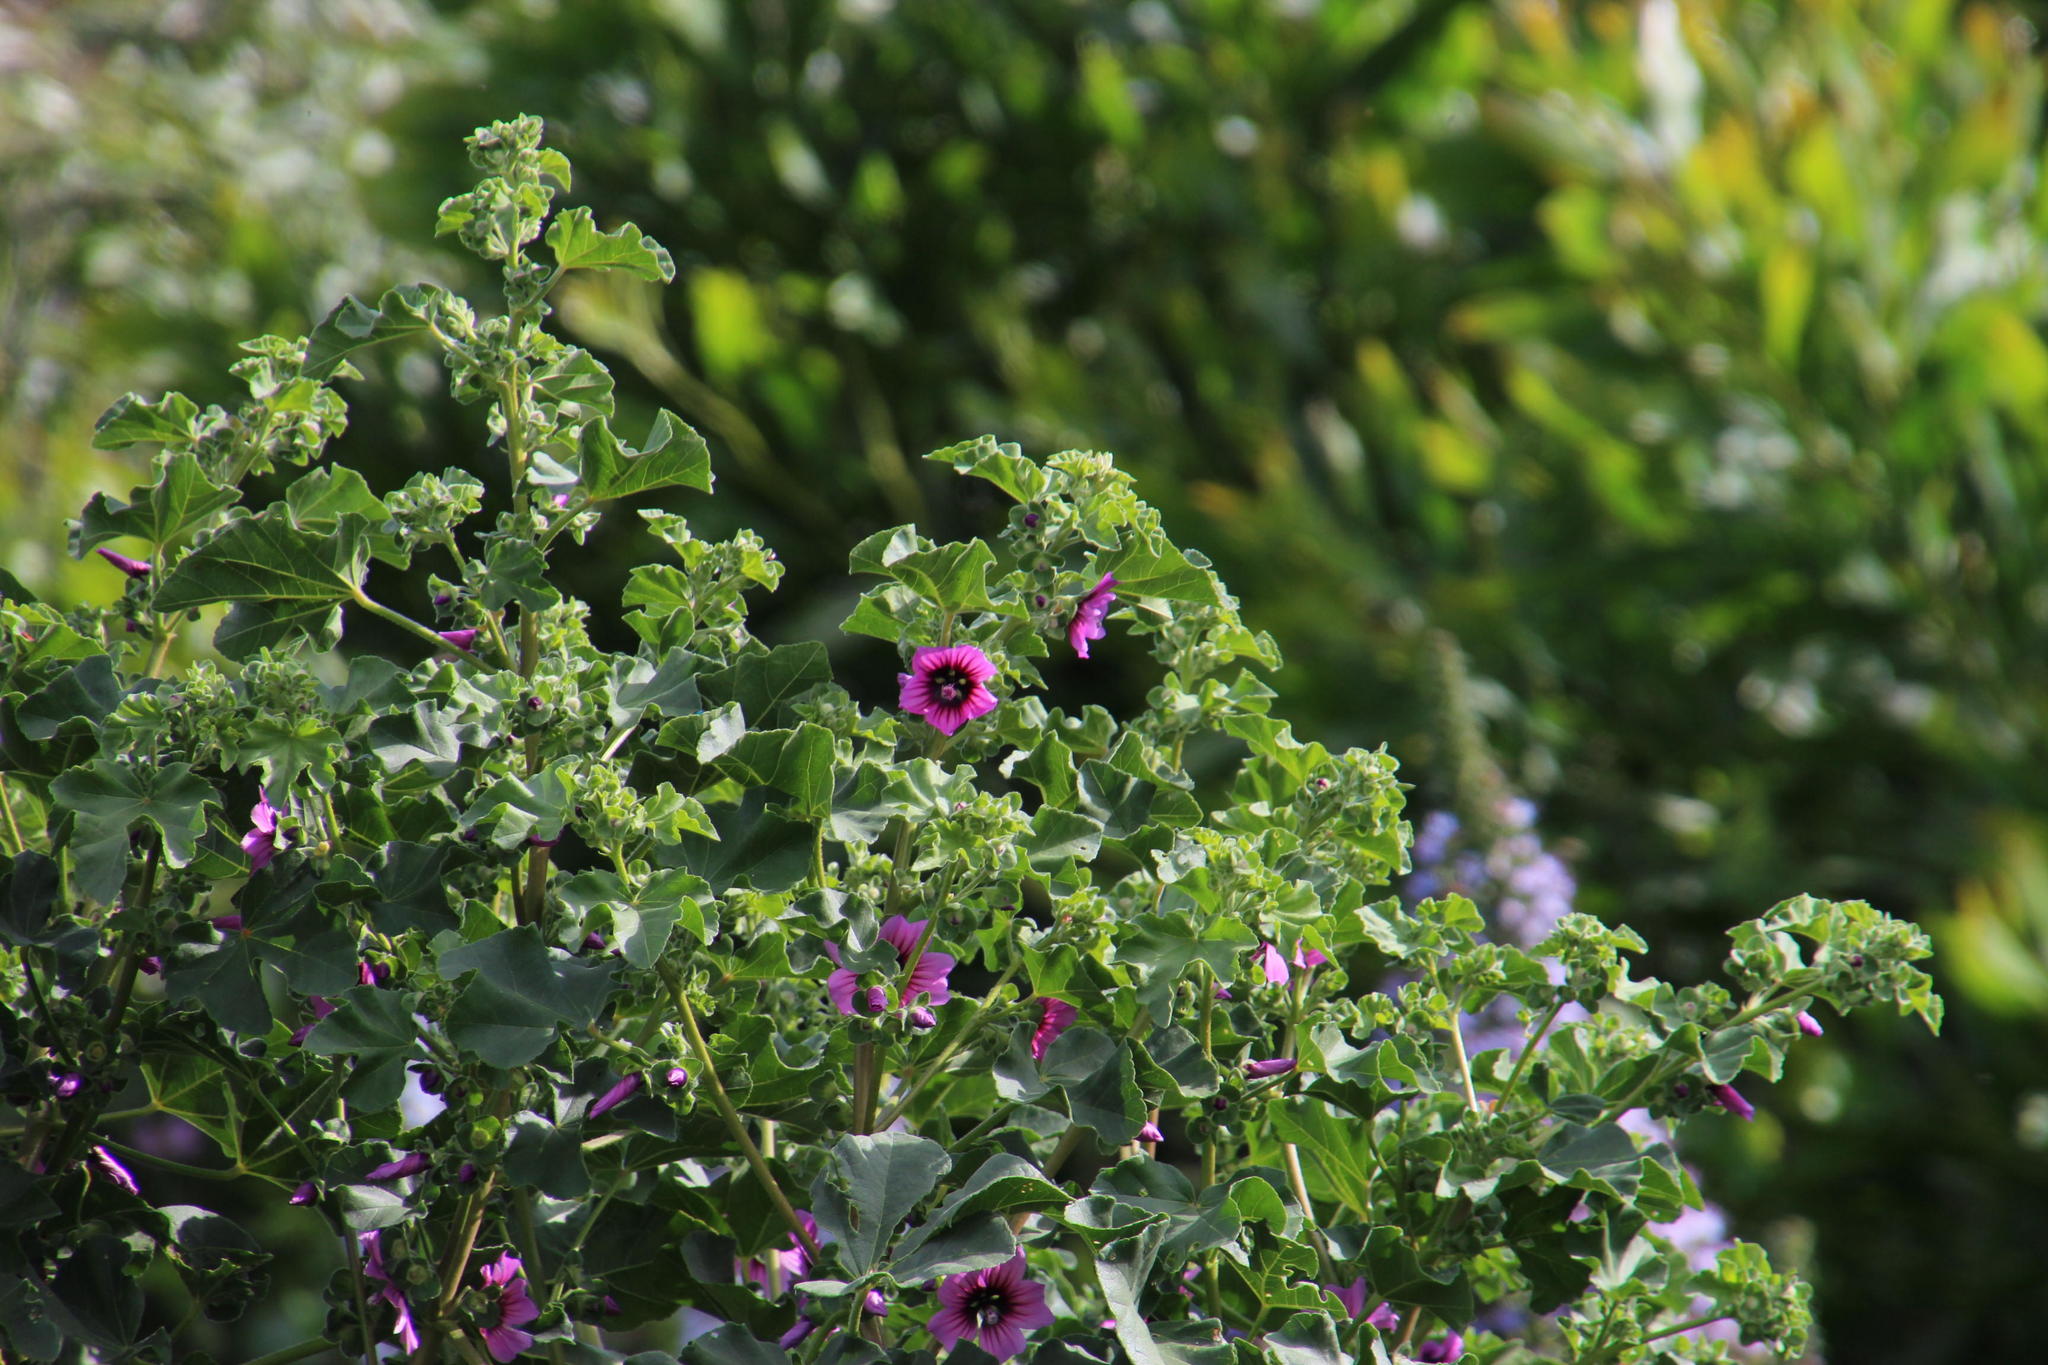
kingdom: Plantae
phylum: Tracheophyta
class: Magnoliopsida
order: Malvales
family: Malvaceae
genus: Malva
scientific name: Malva arborea
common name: Tree mallow
